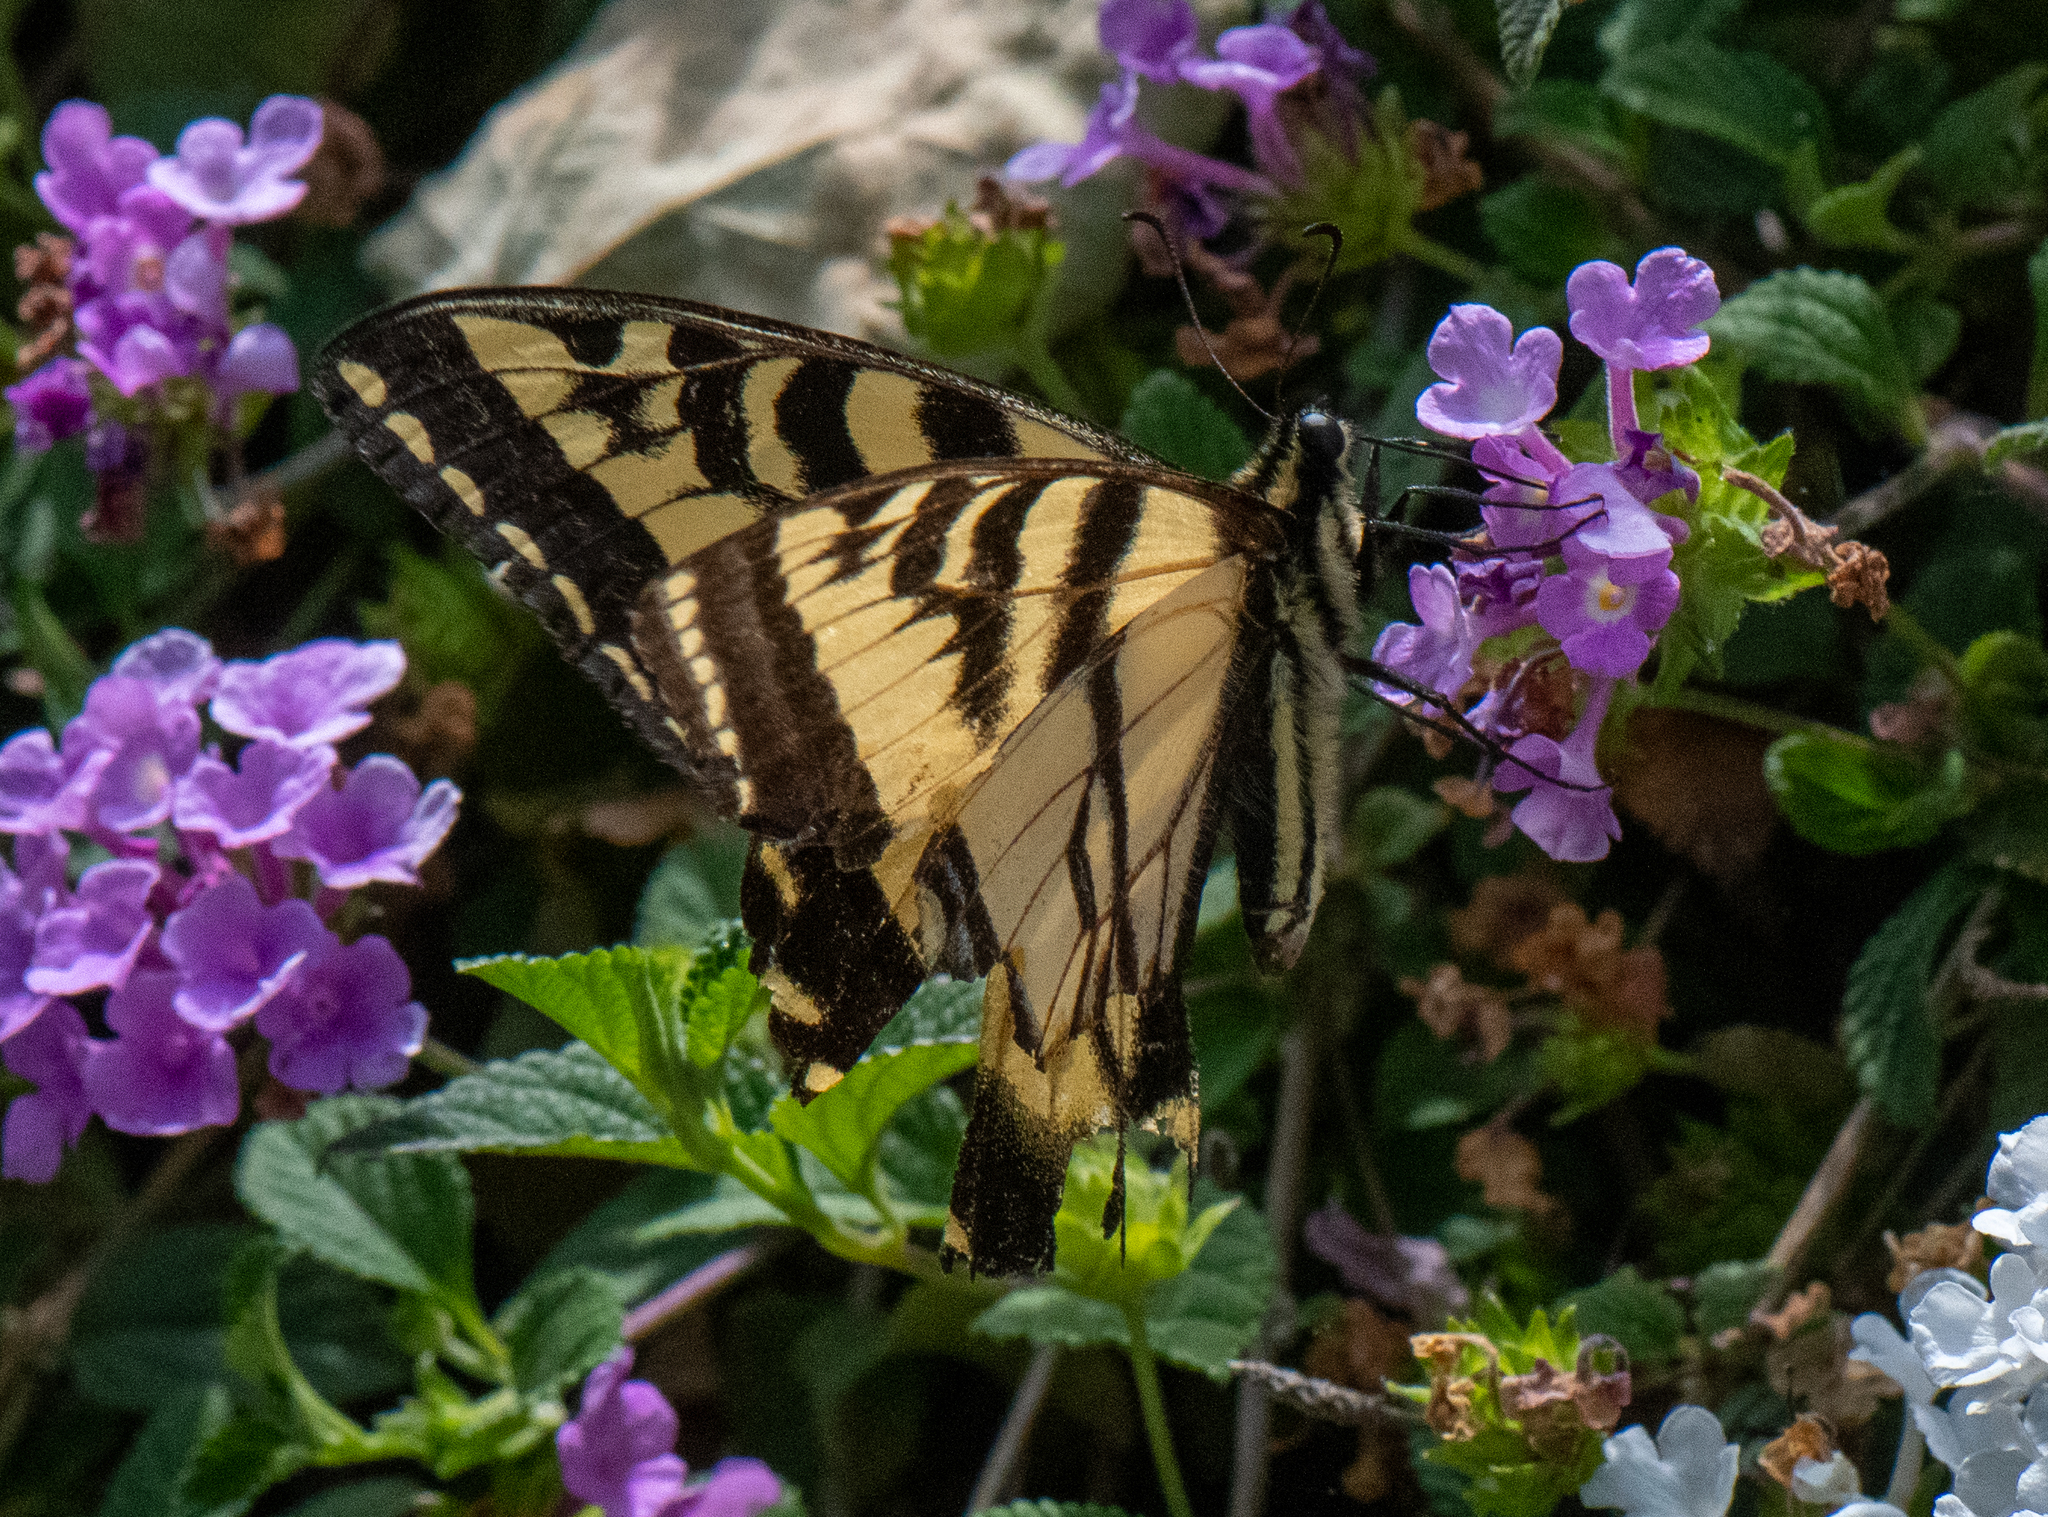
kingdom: Animalia
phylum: Arthropoda
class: Insecta
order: Lepidoptera
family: Papilionidae
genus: Papilio
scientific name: Papilio rutulus
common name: Western tiger swallowtail
